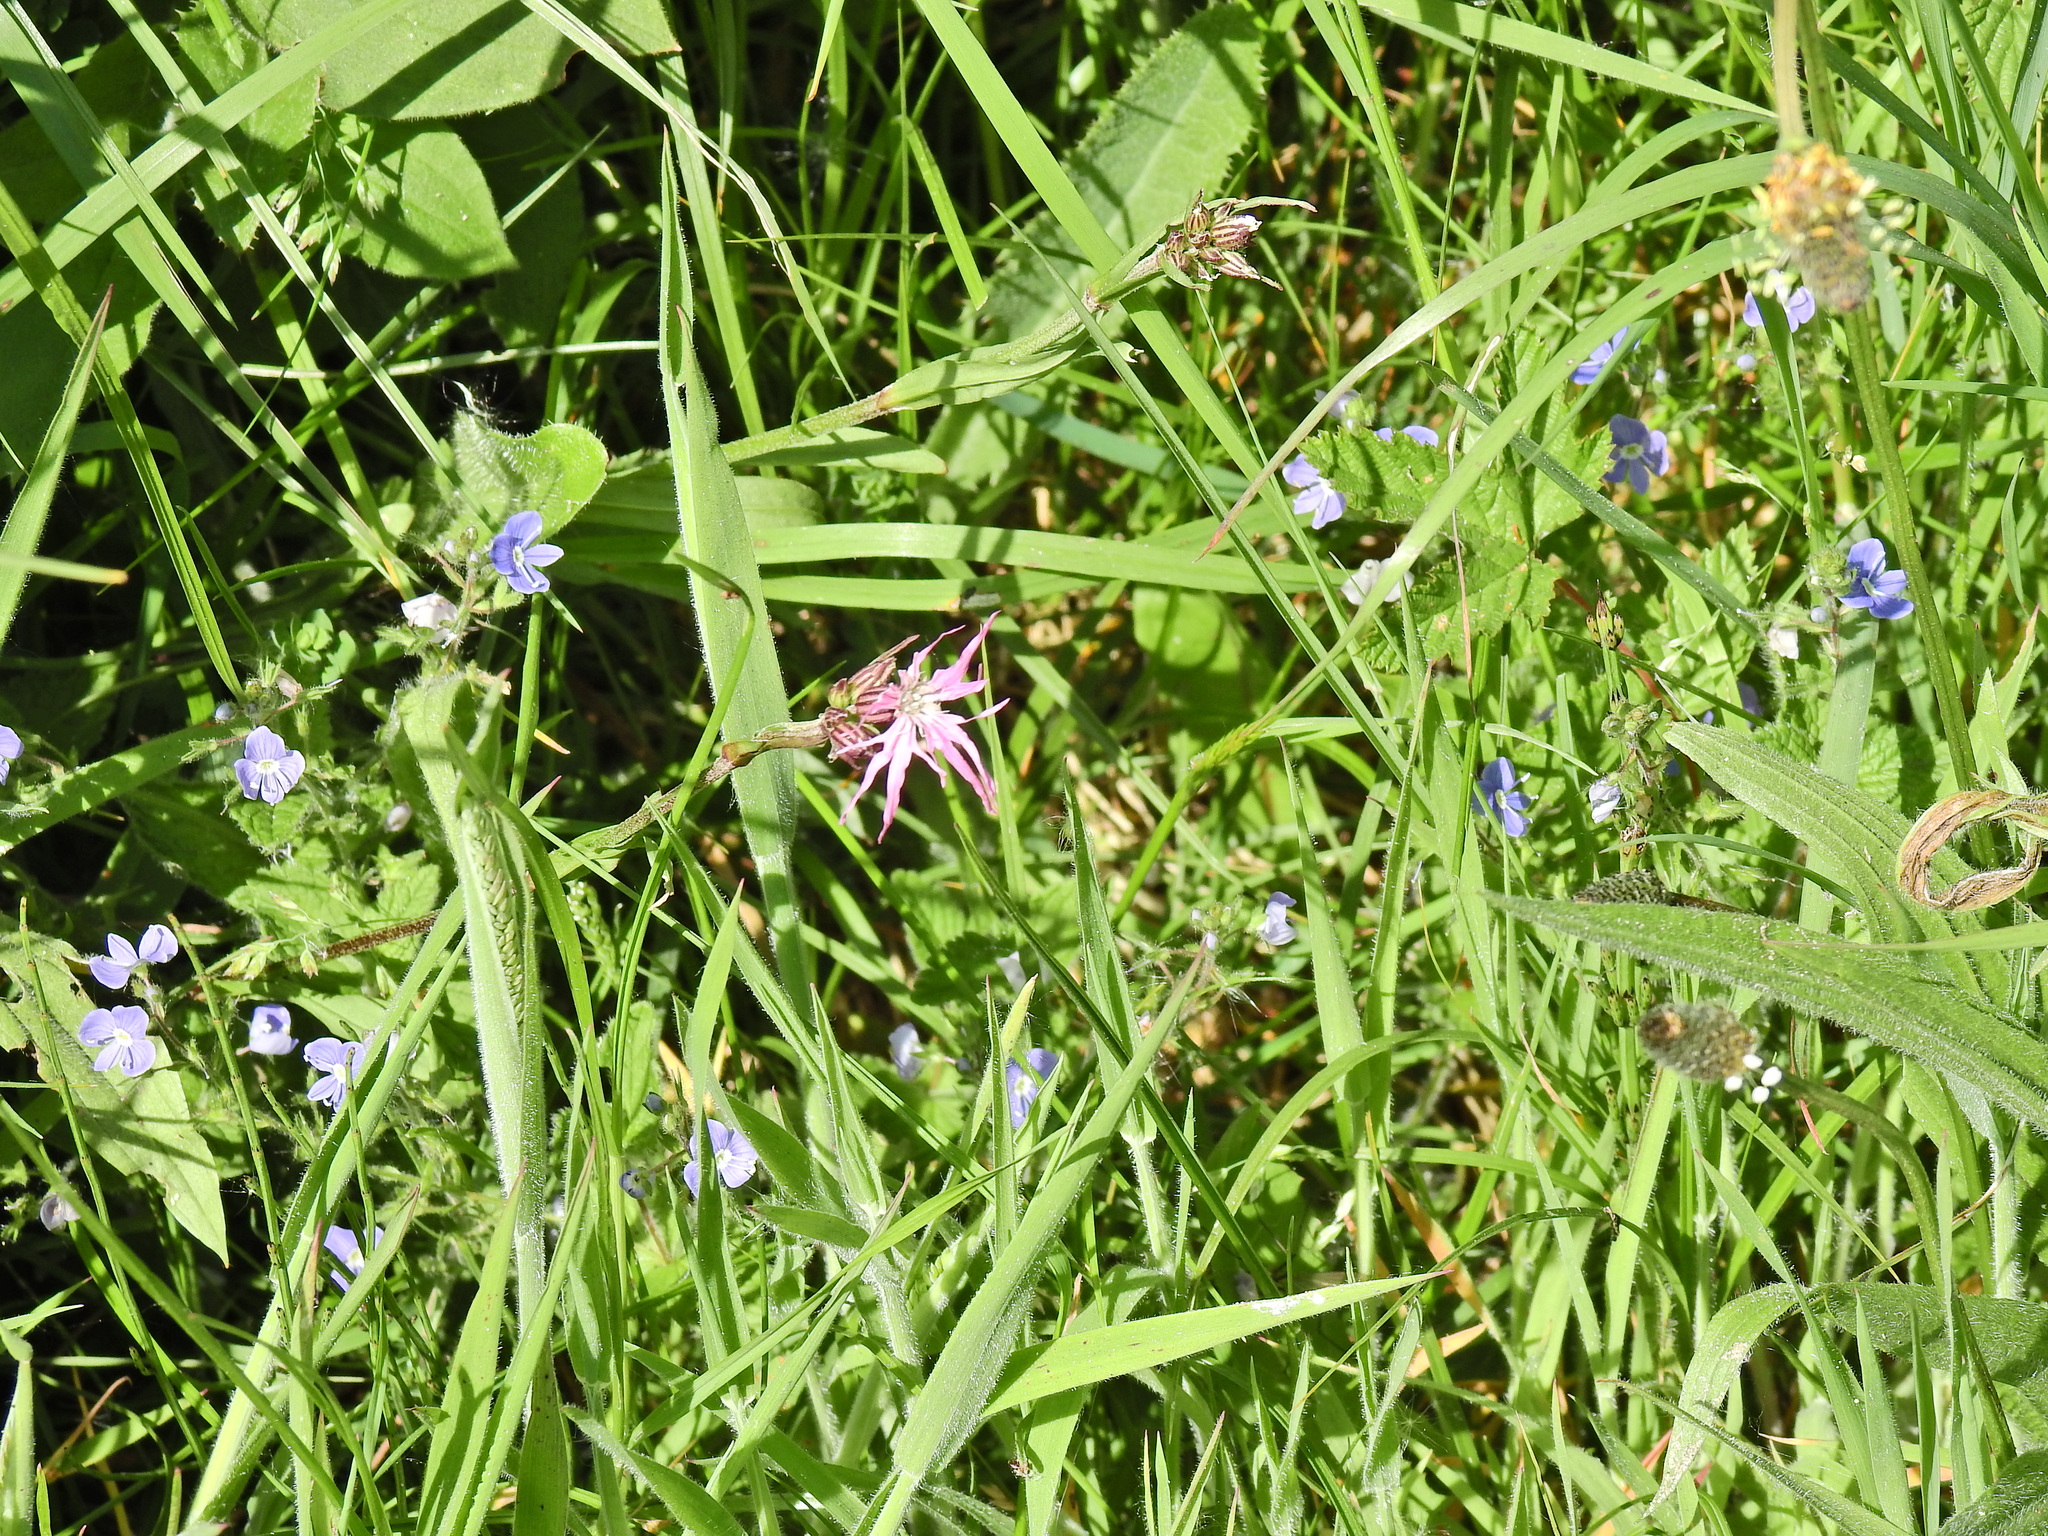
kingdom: Plantae
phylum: Tracheophyta
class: Magnoliopsida
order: Caryophyllales
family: Caryophyllaceae
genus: Silene
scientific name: Silene flos-cuculi
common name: Ragged-robin
